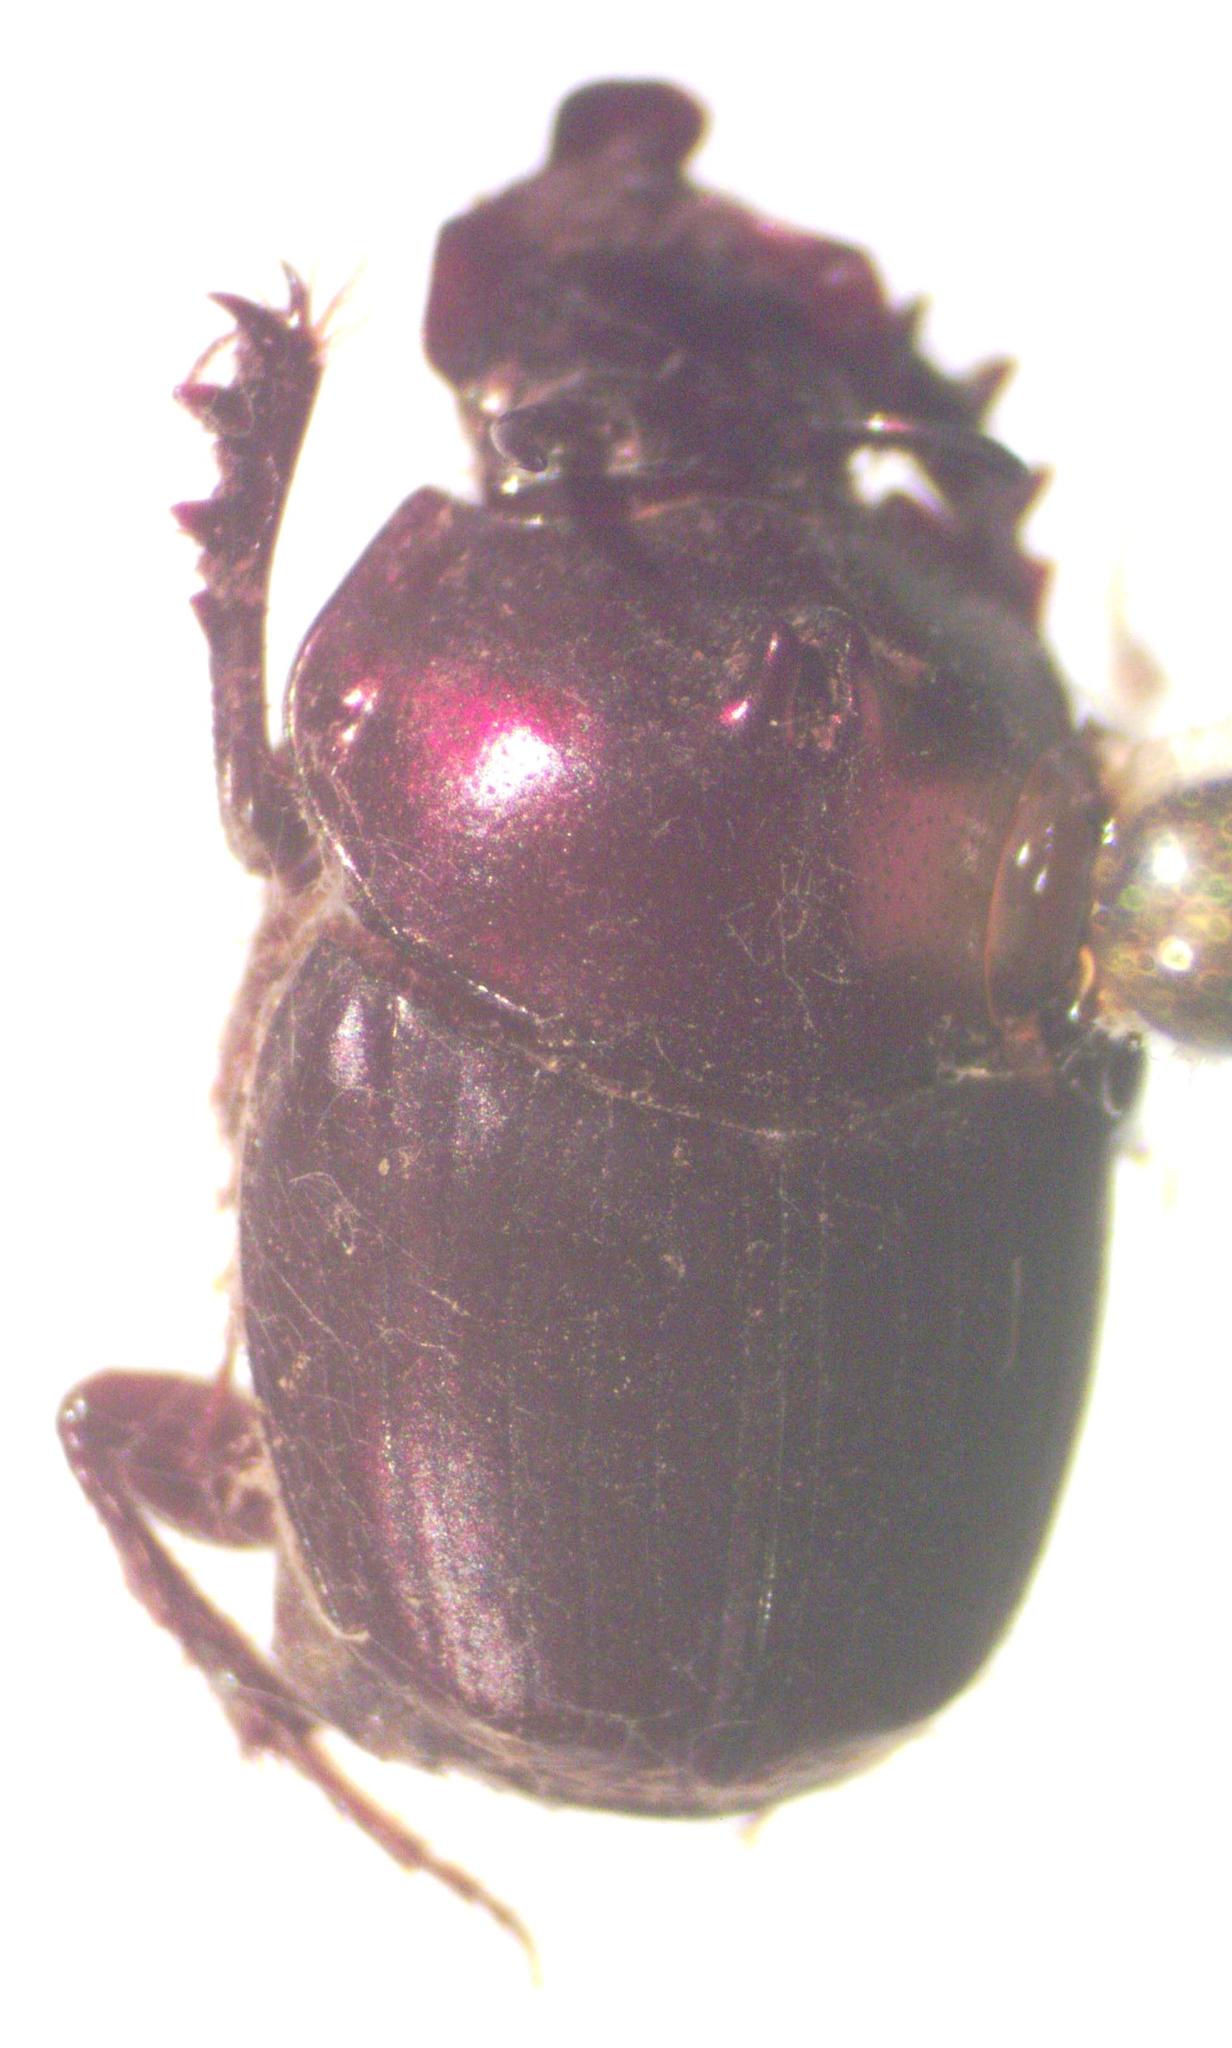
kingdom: Animalia
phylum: Arthropoda
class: Insecta
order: Coleoptera
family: Scarabaeidae
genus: Onthophagus
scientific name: Onthophagus viridivinosus
